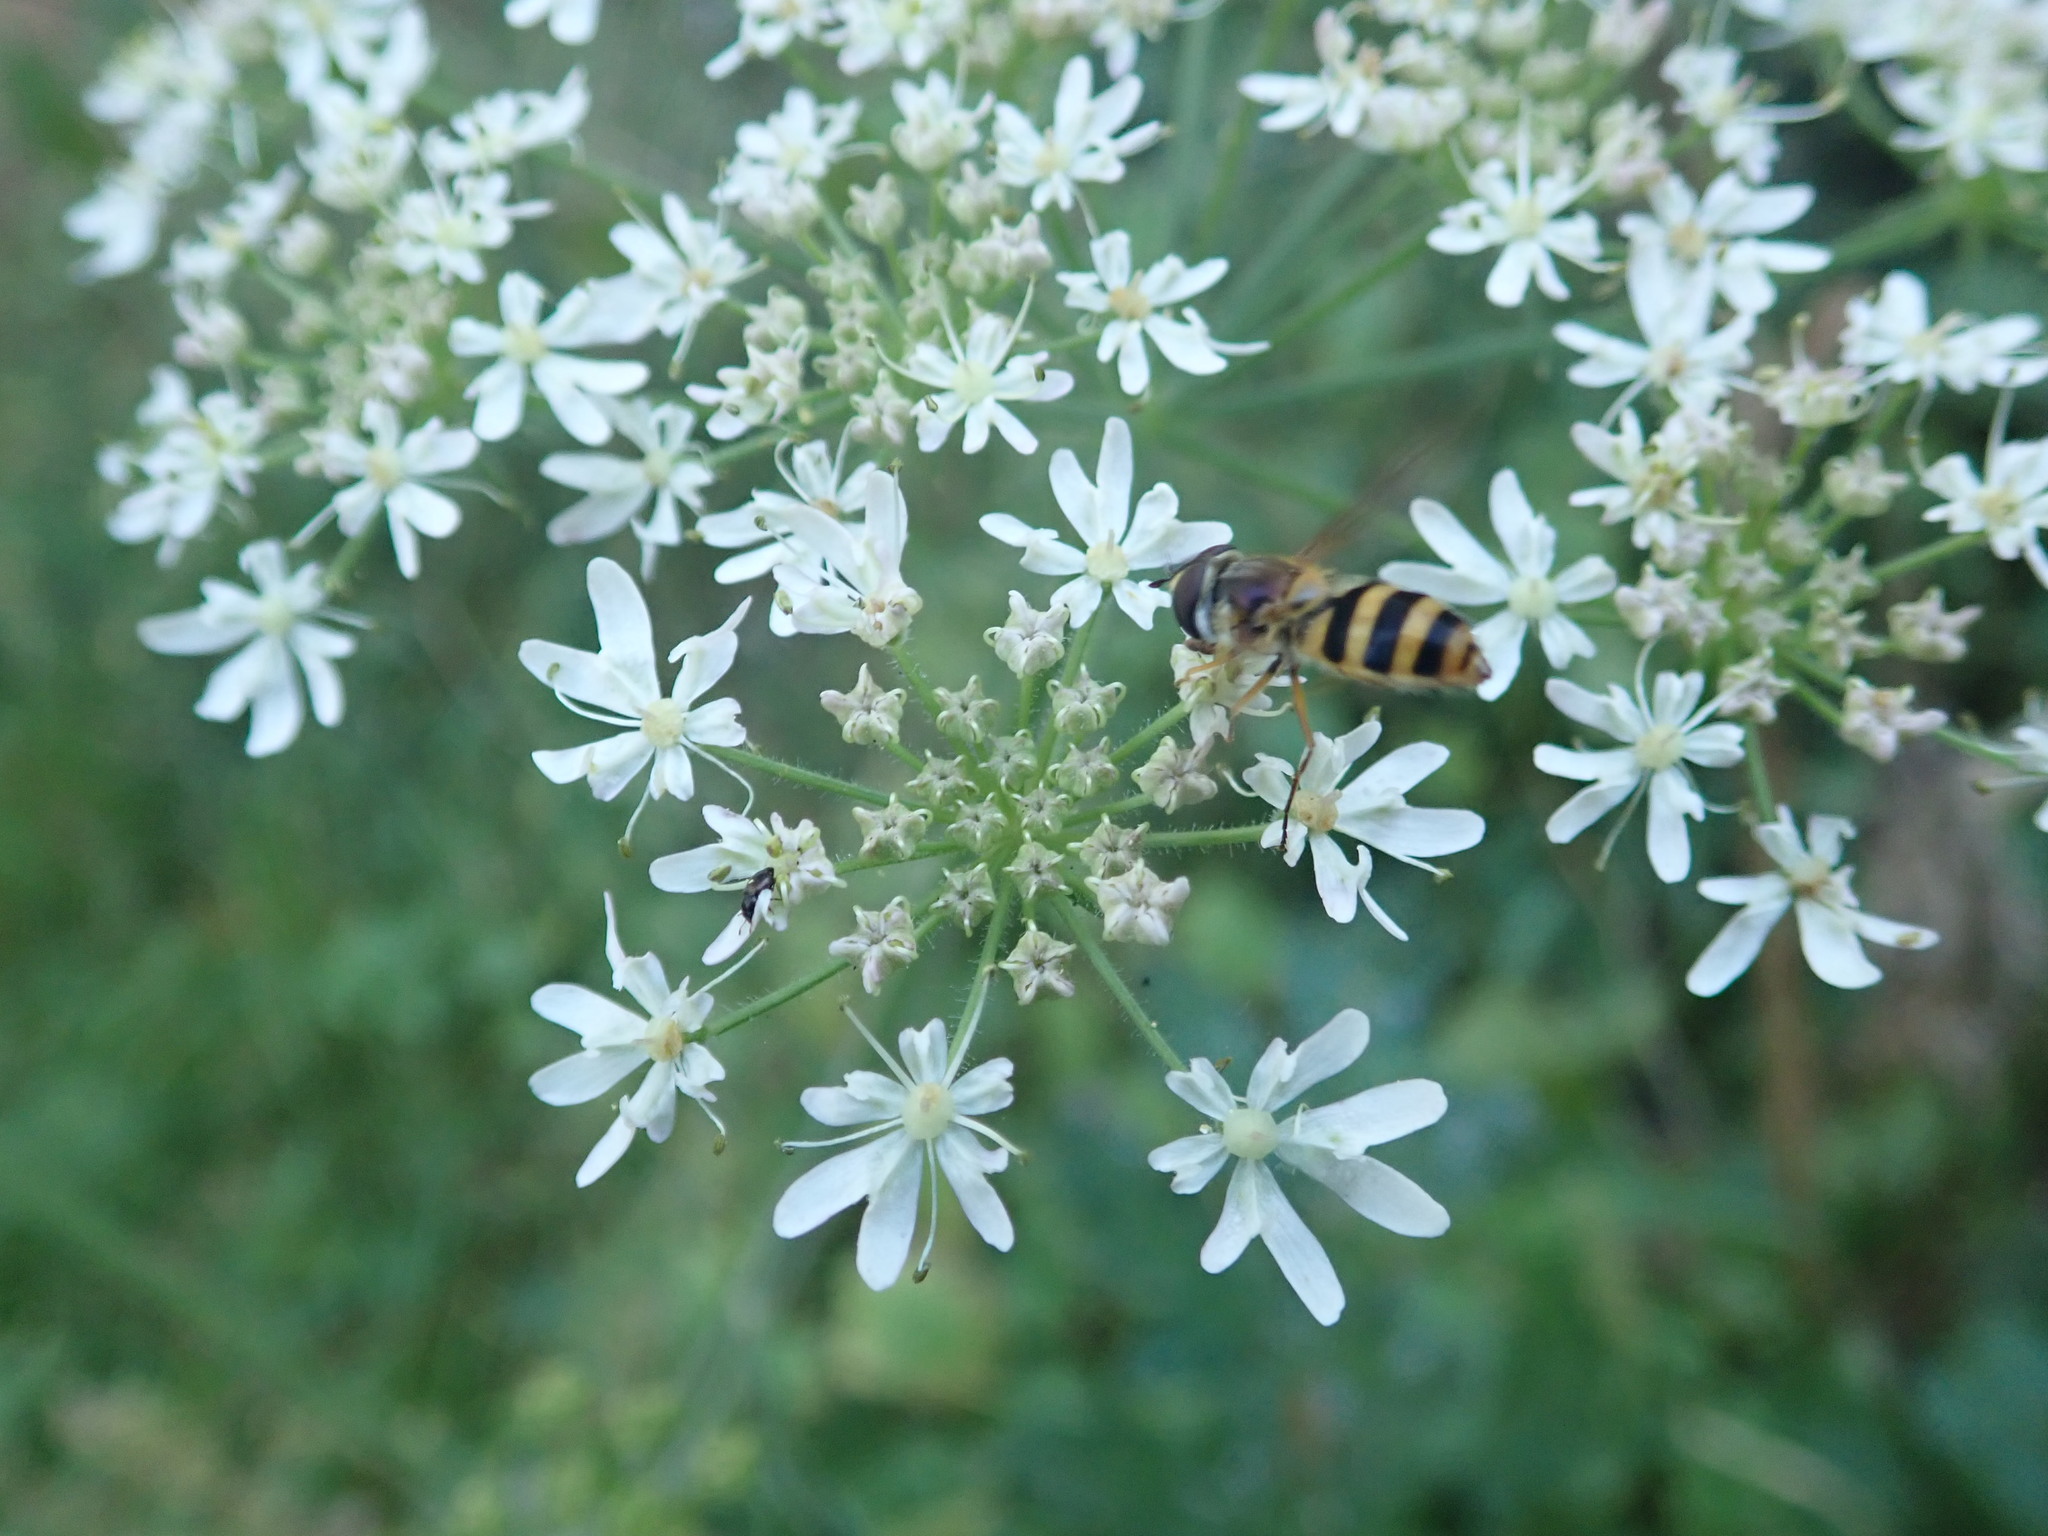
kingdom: Animalia
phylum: Arthropoda
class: Insecta
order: Diptera
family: Syrphidae
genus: Epistrophe
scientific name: Epistrophe grossulariae
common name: Black-horned smoothtail
